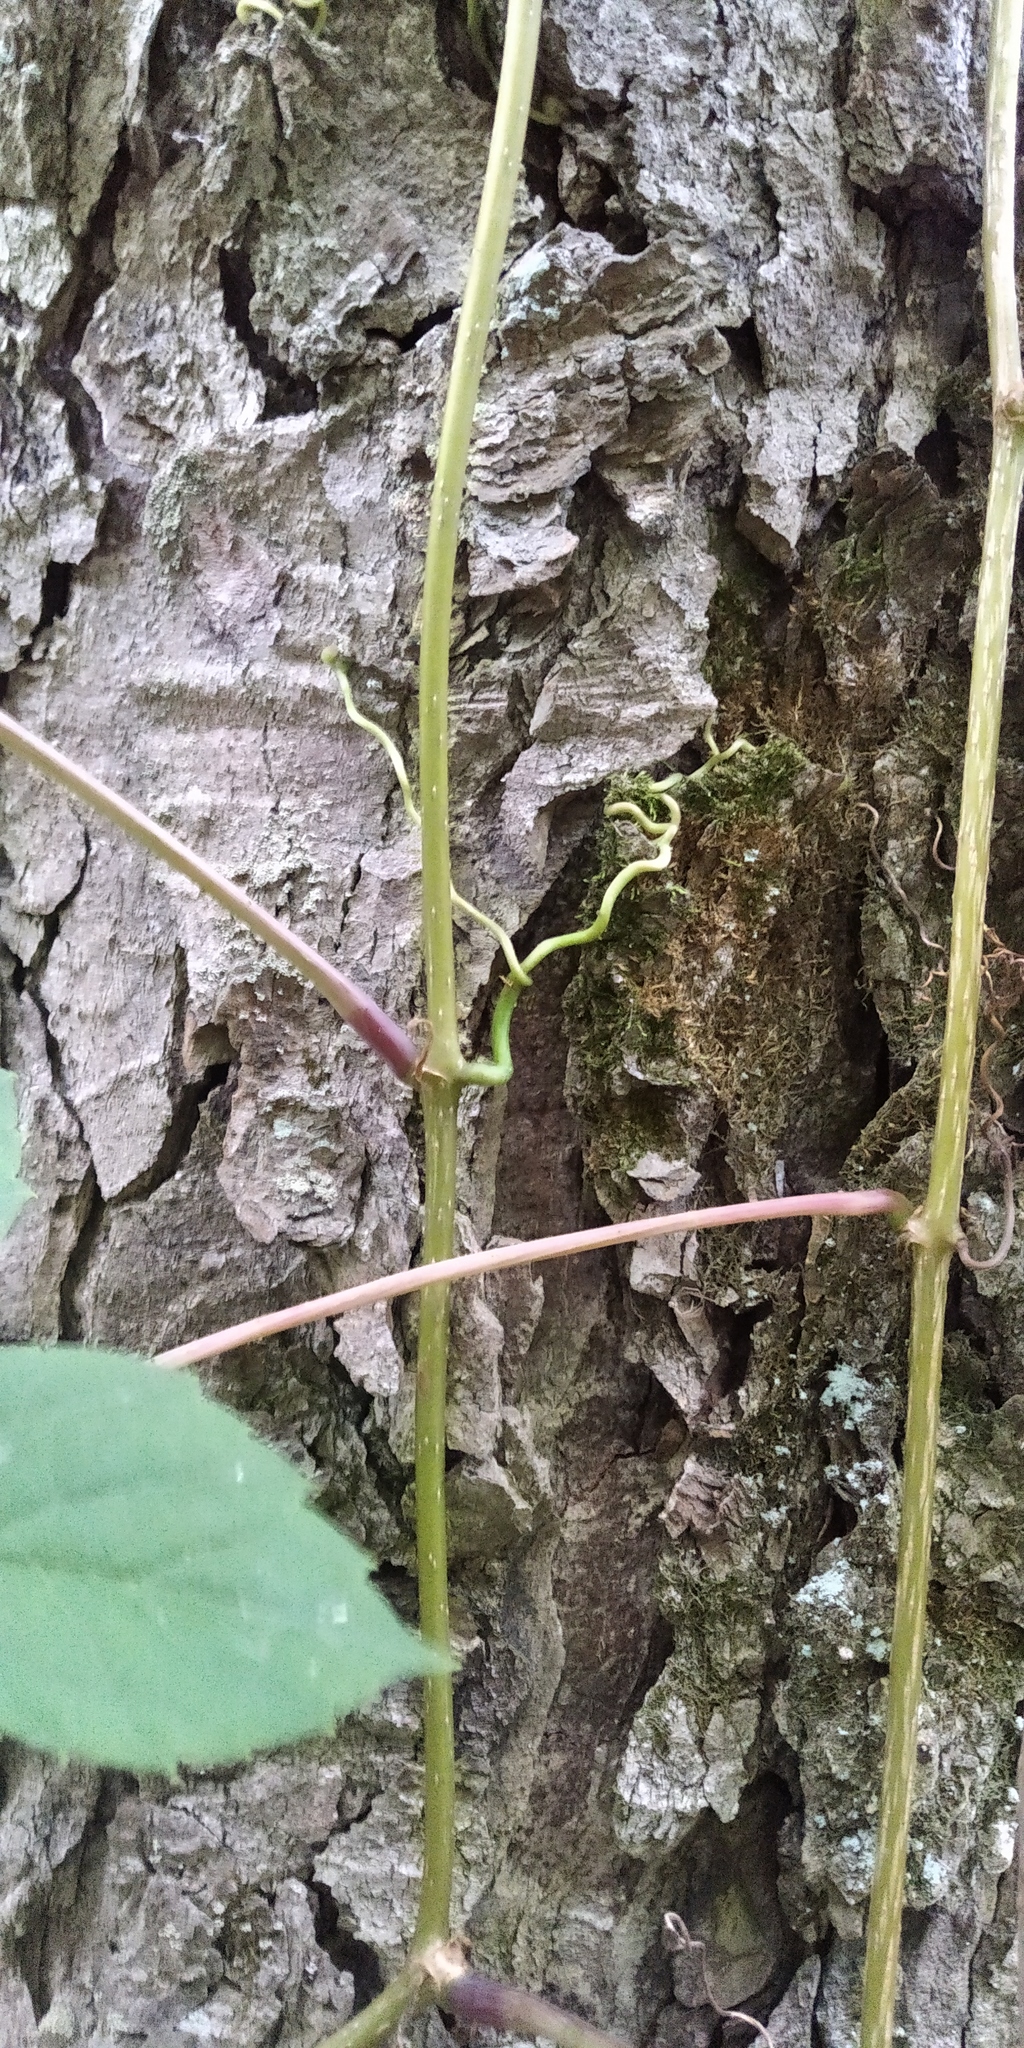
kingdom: Plantae
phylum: Tracheophyta
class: Magnoliopsida
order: Vitales
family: Vitaceae
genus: Parthenocissus
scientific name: Parthenocissus inserta
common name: False virginia-creeper
